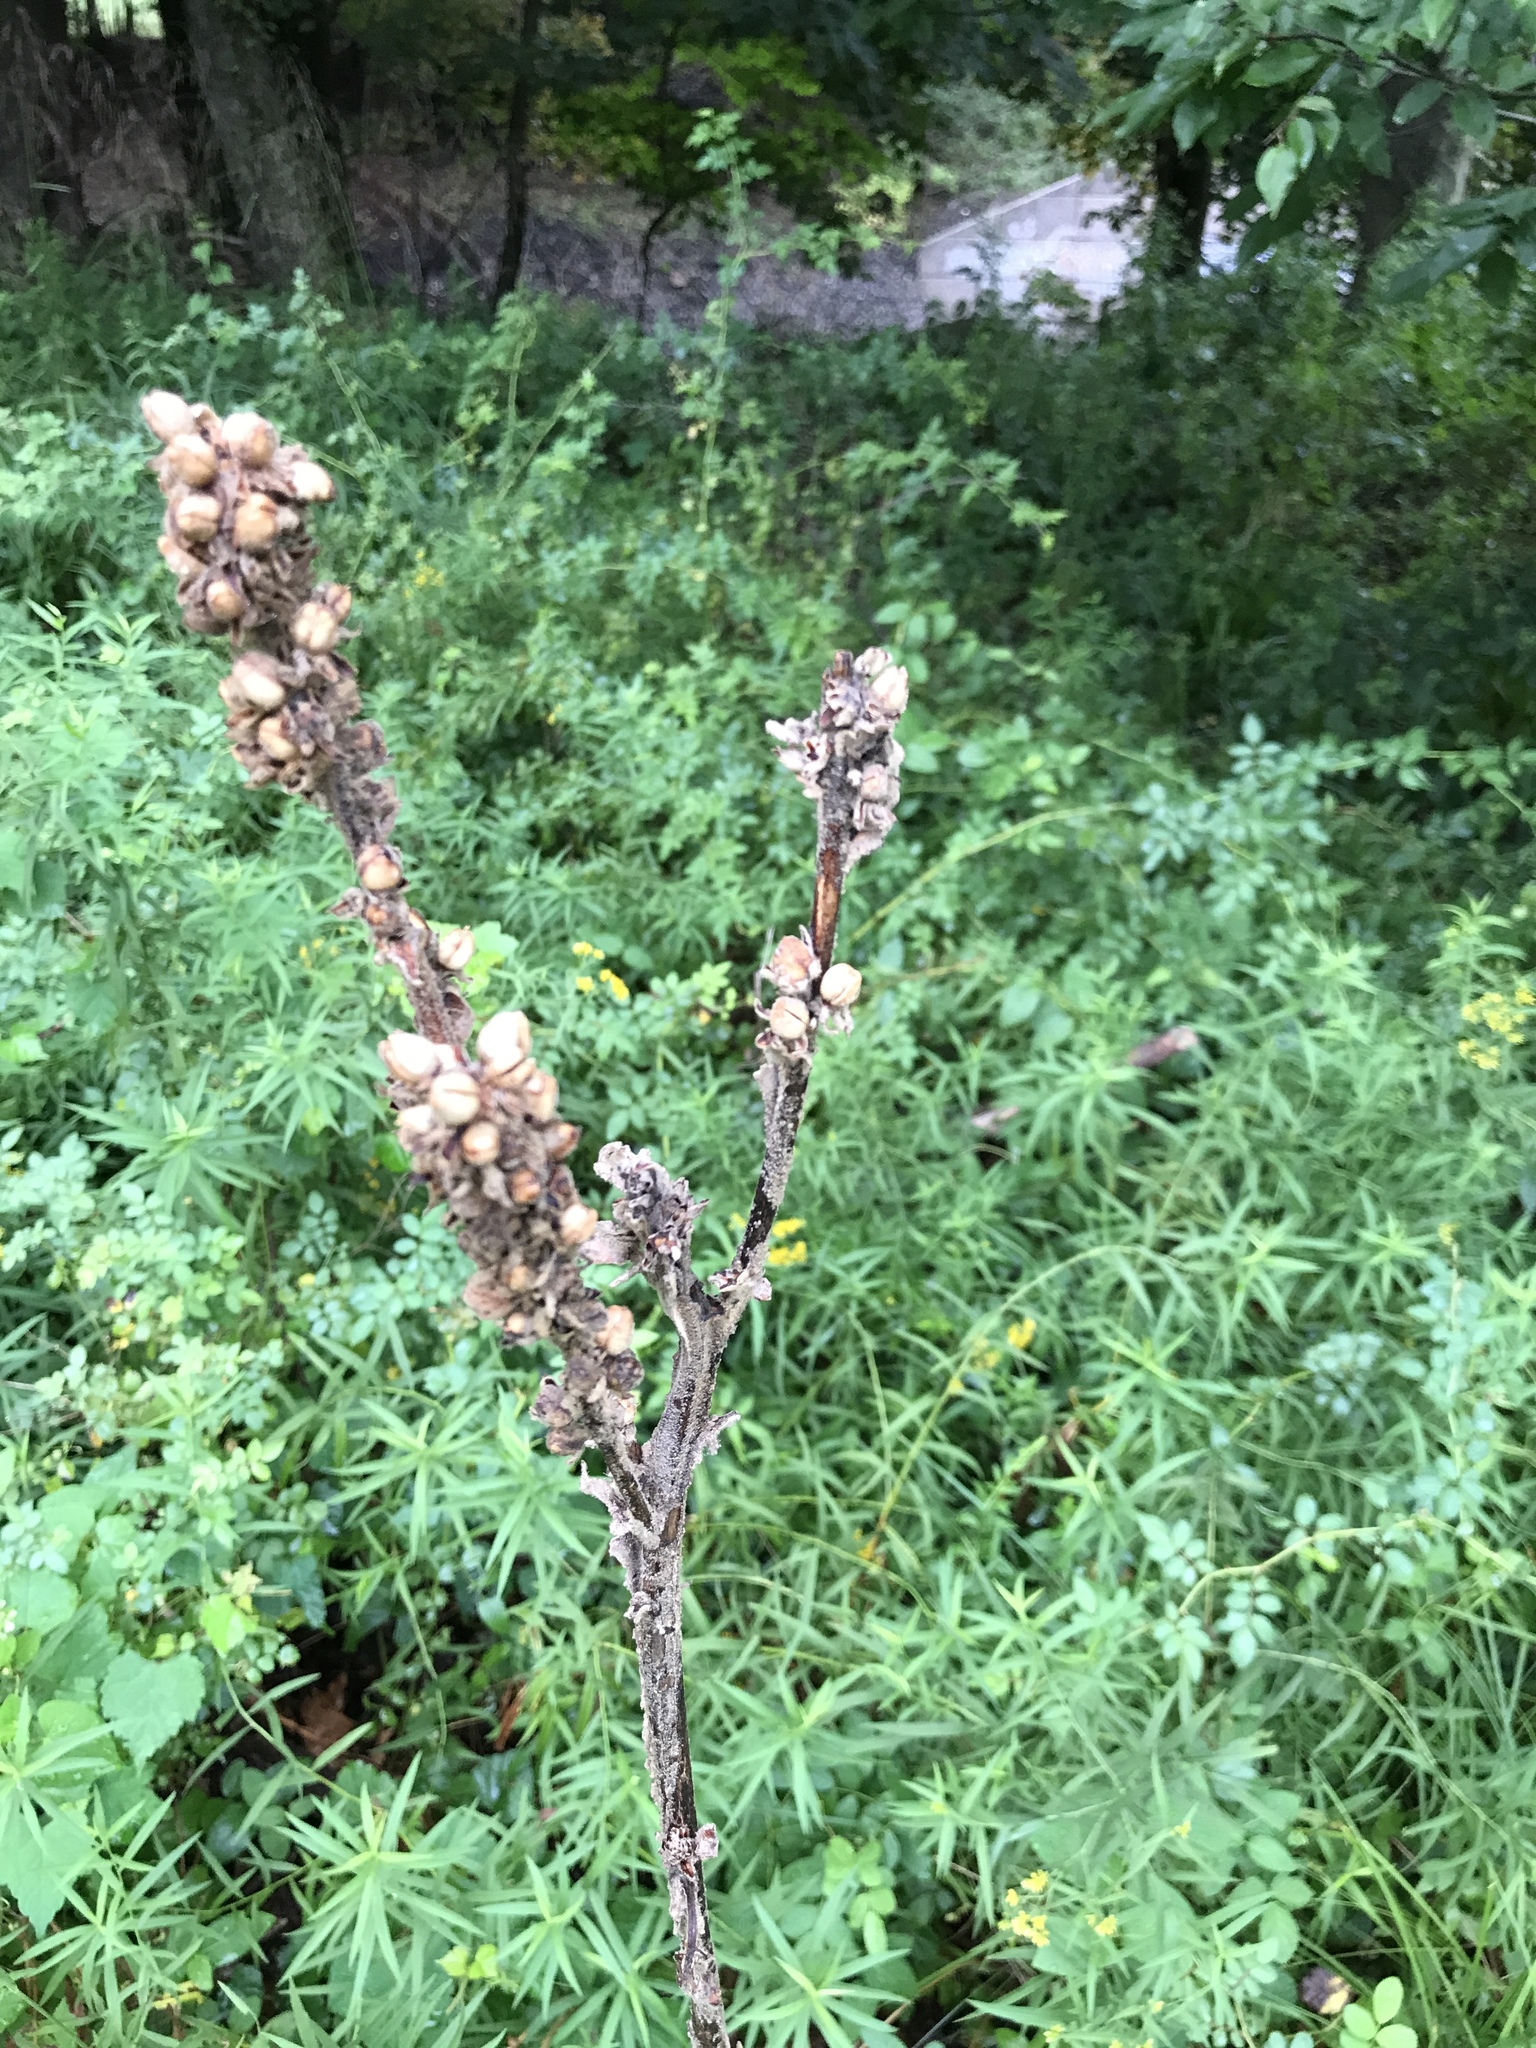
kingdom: Plantae
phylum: Tracheophyta
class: Magnoliopsida
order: Lamiales
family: Scrophulariaceae
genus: Verbascum
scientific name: Verbascum thapsus
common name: Common mullein
